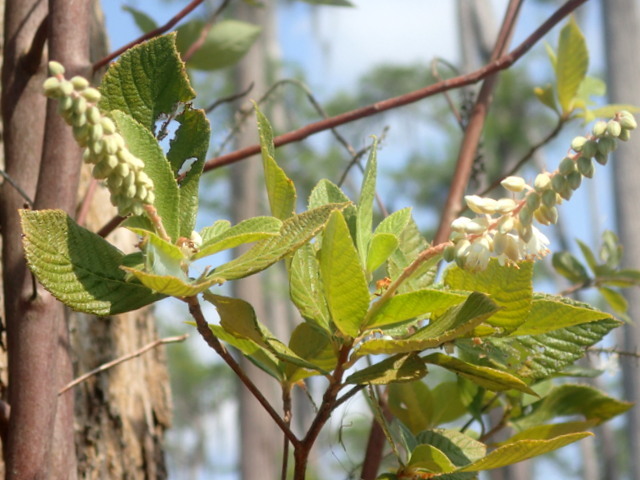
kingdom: Plantae
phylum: Tracheophyta
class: Magnoliopsida
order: Ericales
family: Clethraceae
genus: Clethra
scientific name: Clethra alnifolia
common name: Sweet pepperbush
